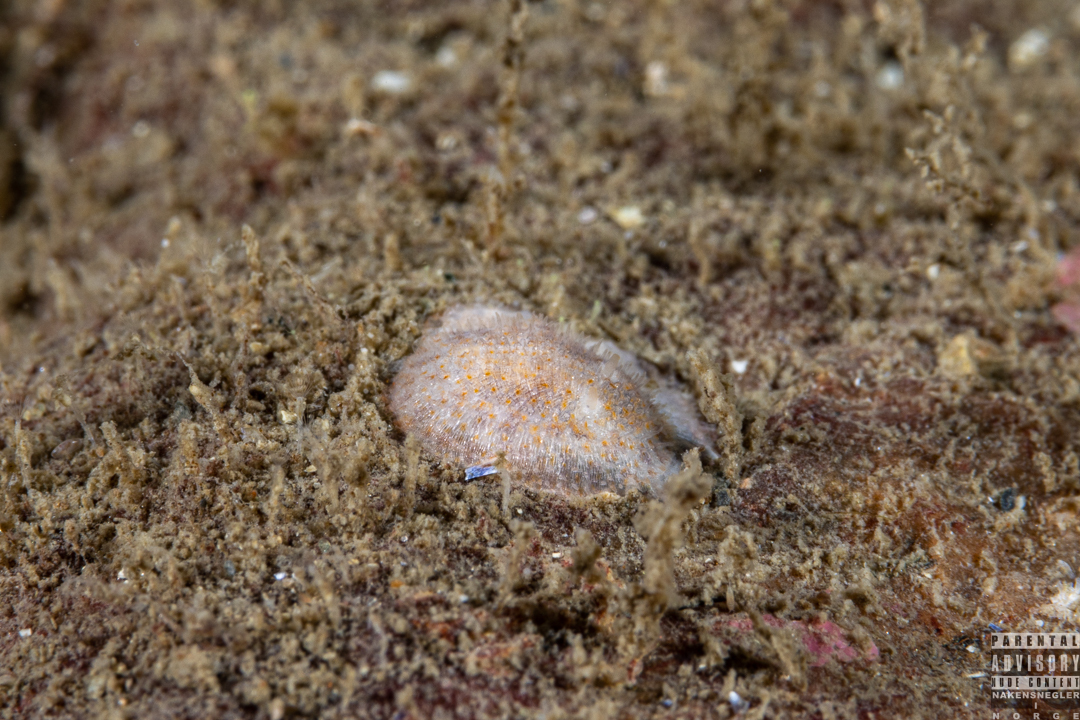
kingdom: Animalia
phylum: Mollusca
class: Gastropoda
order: Nudibranchia
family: Onchidorididae
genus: Idaliadoris
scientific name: Idaliadoris depressa
